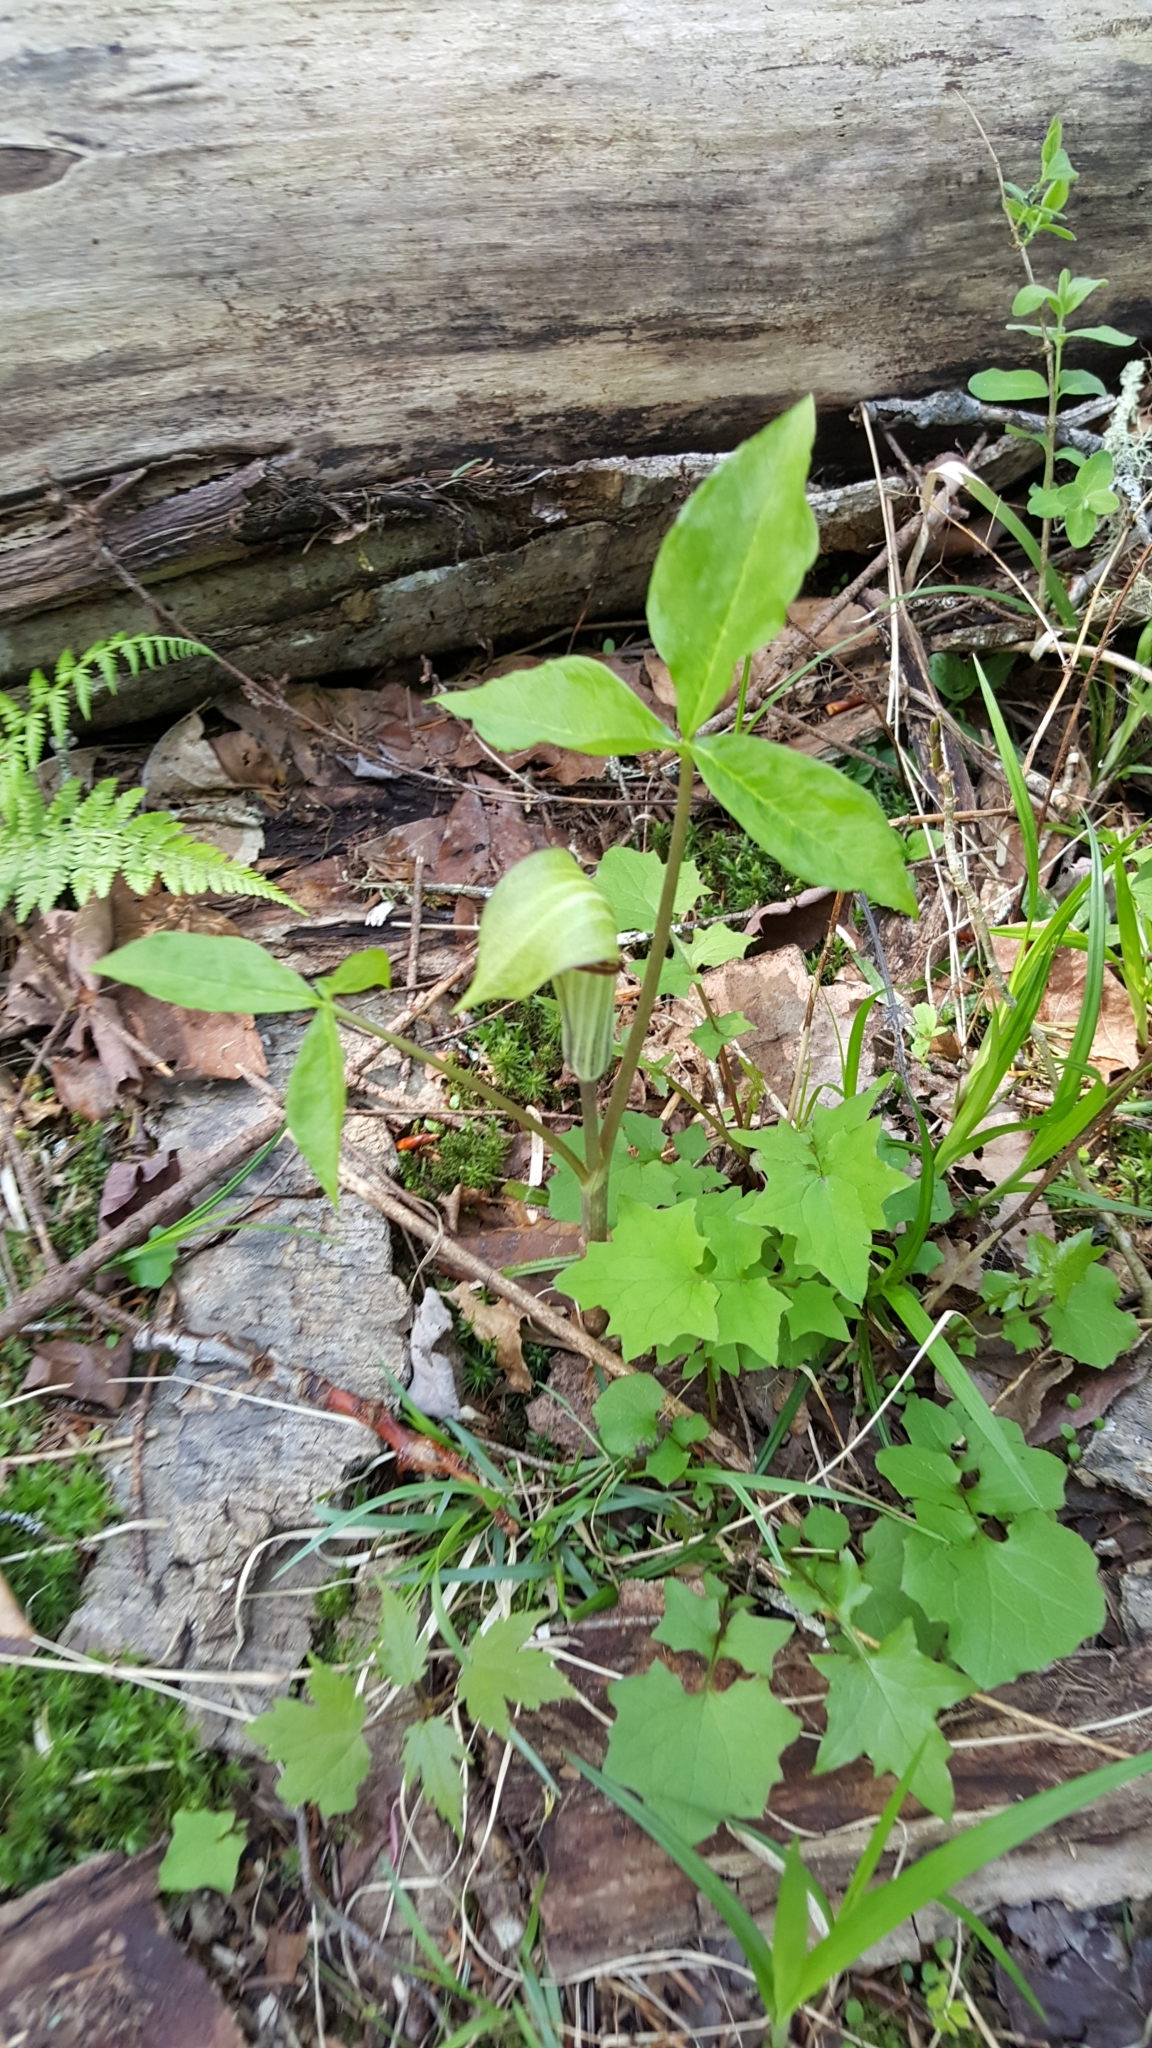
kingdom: Plantae
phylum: Tracheophyta
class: Liliopsida
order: Alismatales
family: Araceae
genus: Arisaema
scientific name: Arisaema triphyllum
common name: Jack-in-the-pulpit
